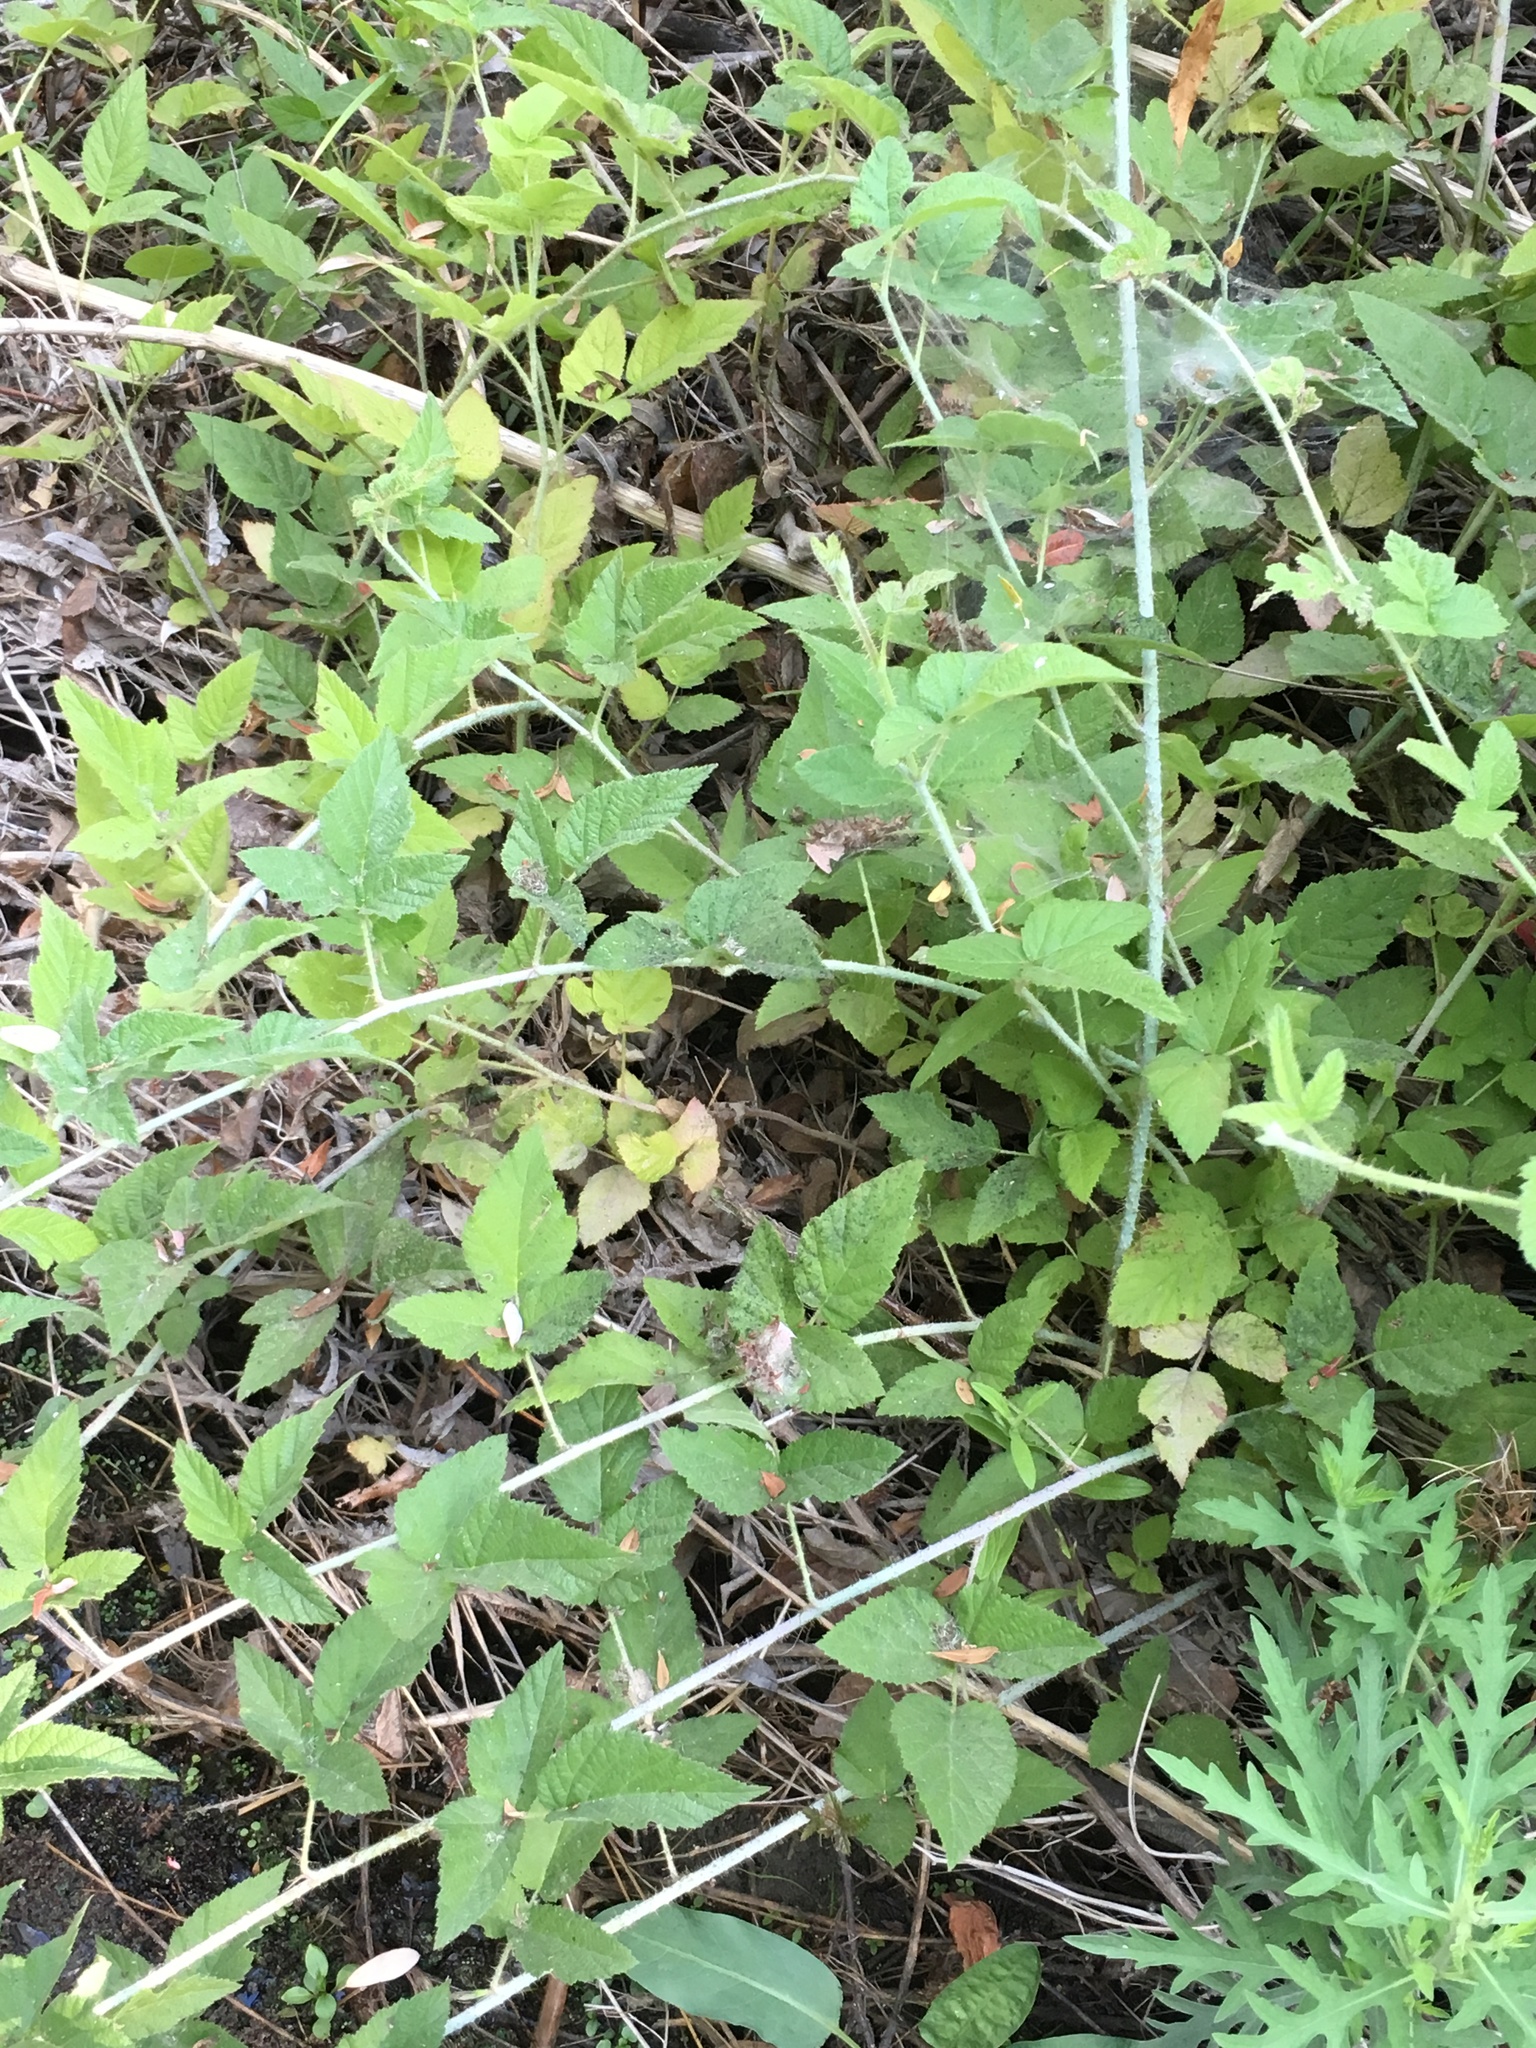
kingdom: Plantae
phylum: Tracheophyta
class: Magnoliopsida
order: Rosales
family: Rosaceae
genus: Rubus
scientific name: Rubus ursinus
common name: Pacific blackberry
